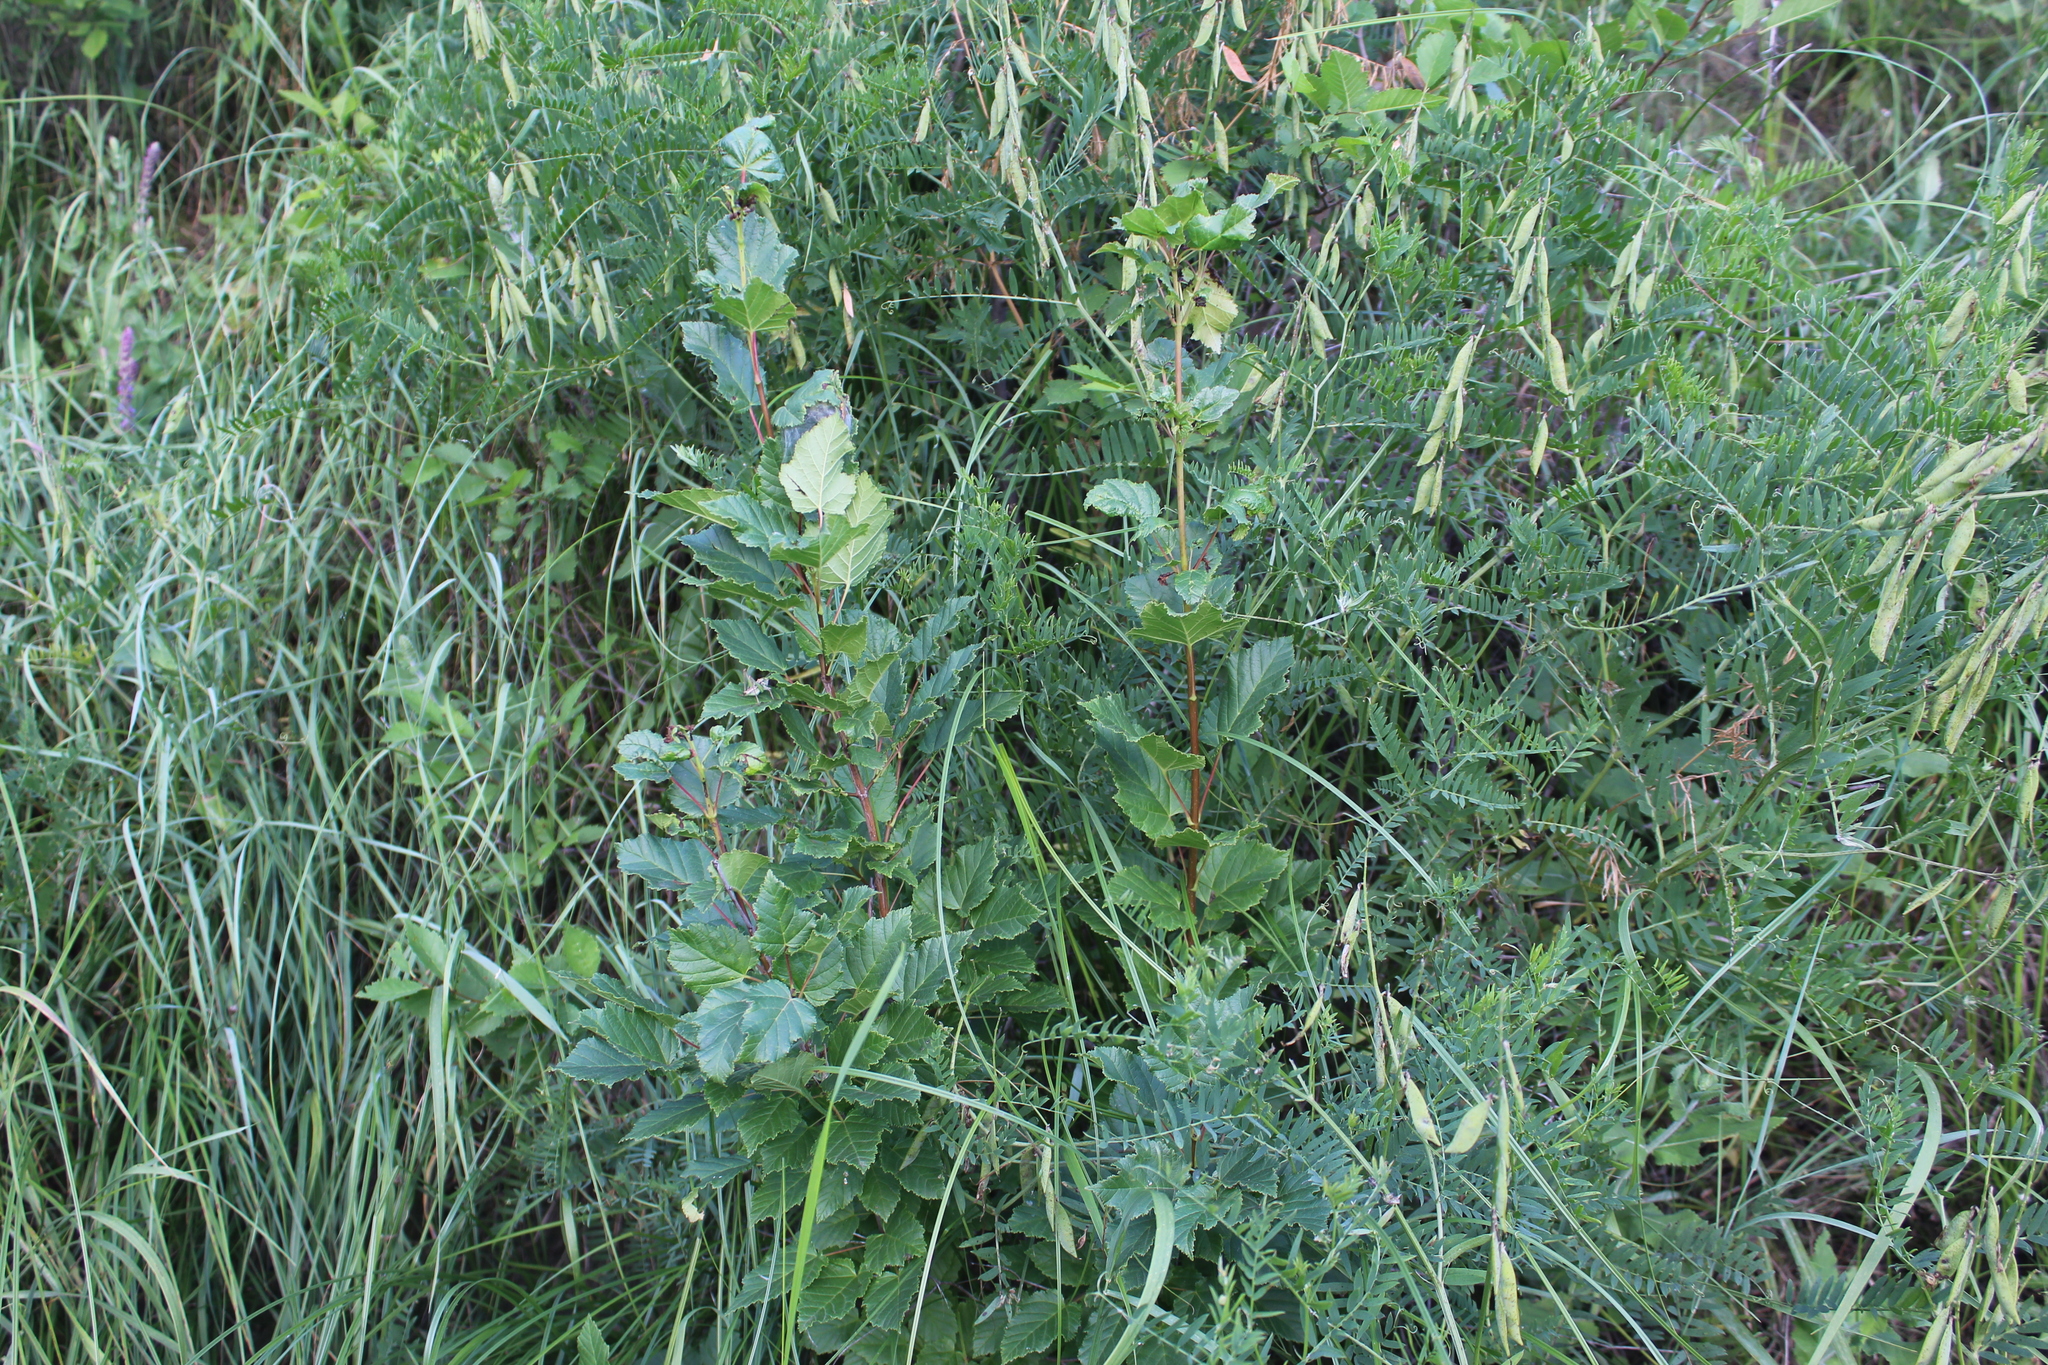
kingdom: Plantae
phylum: Tracheophyta
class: Magnoliopsida
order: Sapindales
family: Sapindaceae
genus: Acer
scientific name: Acer tataricum
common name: Tartar maple
